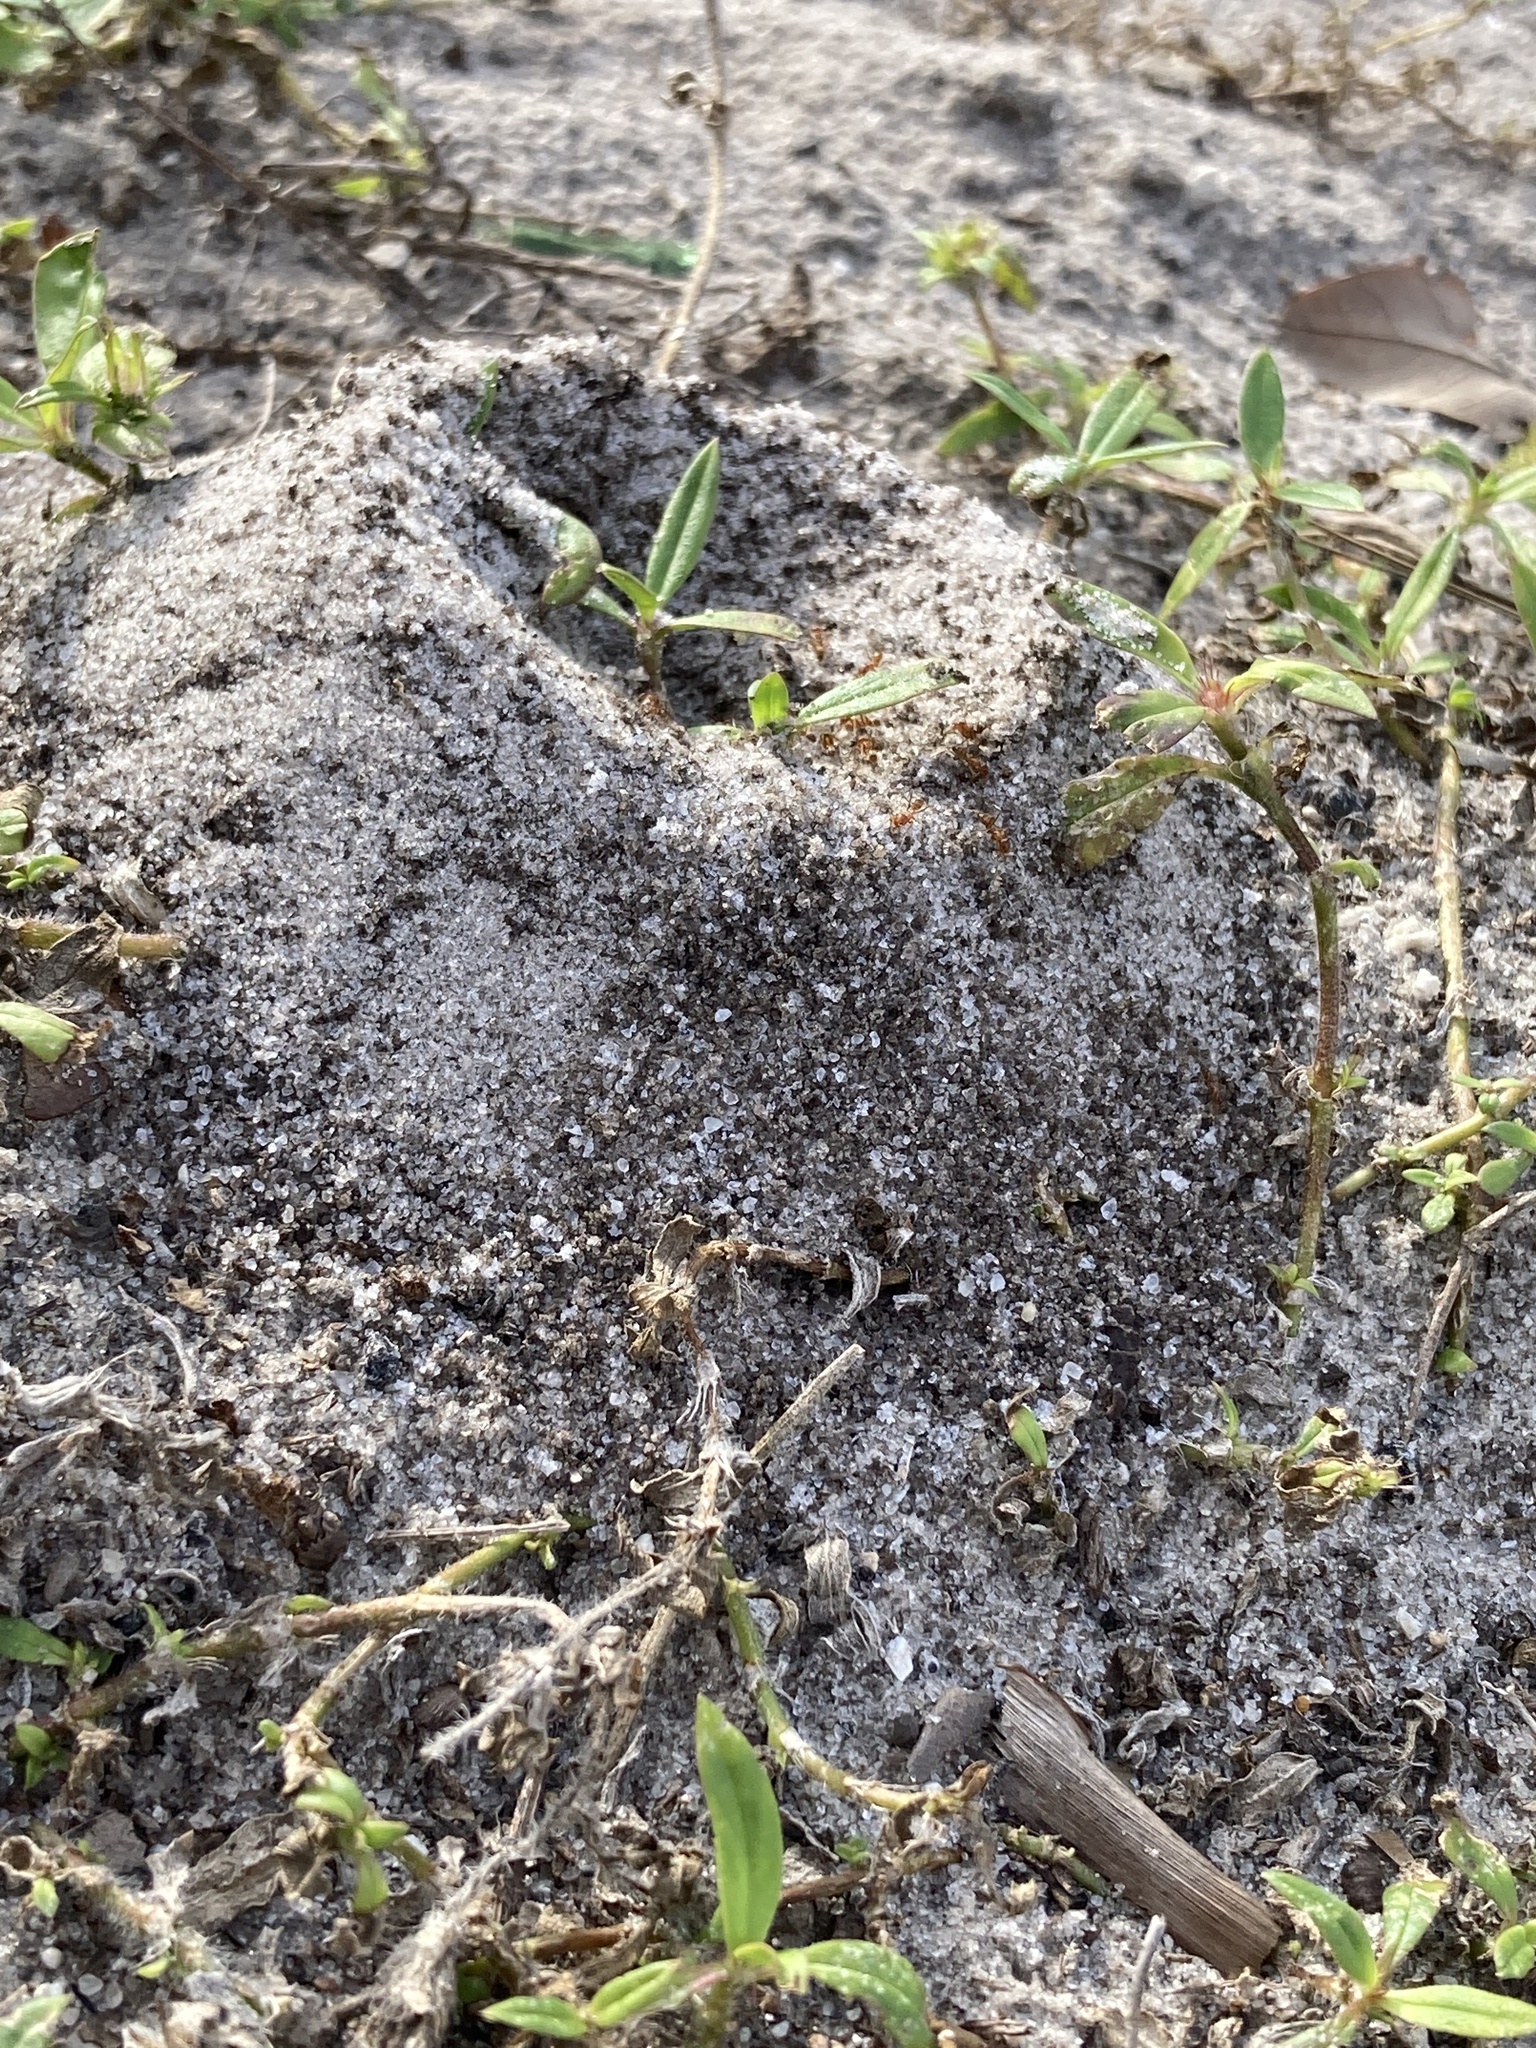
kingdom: Animalia
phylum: Arthropoda
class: Insecta
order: Hymenoptera
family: Formicidae
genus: Dorymyrmex
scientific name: Dorymyrmex bureni
